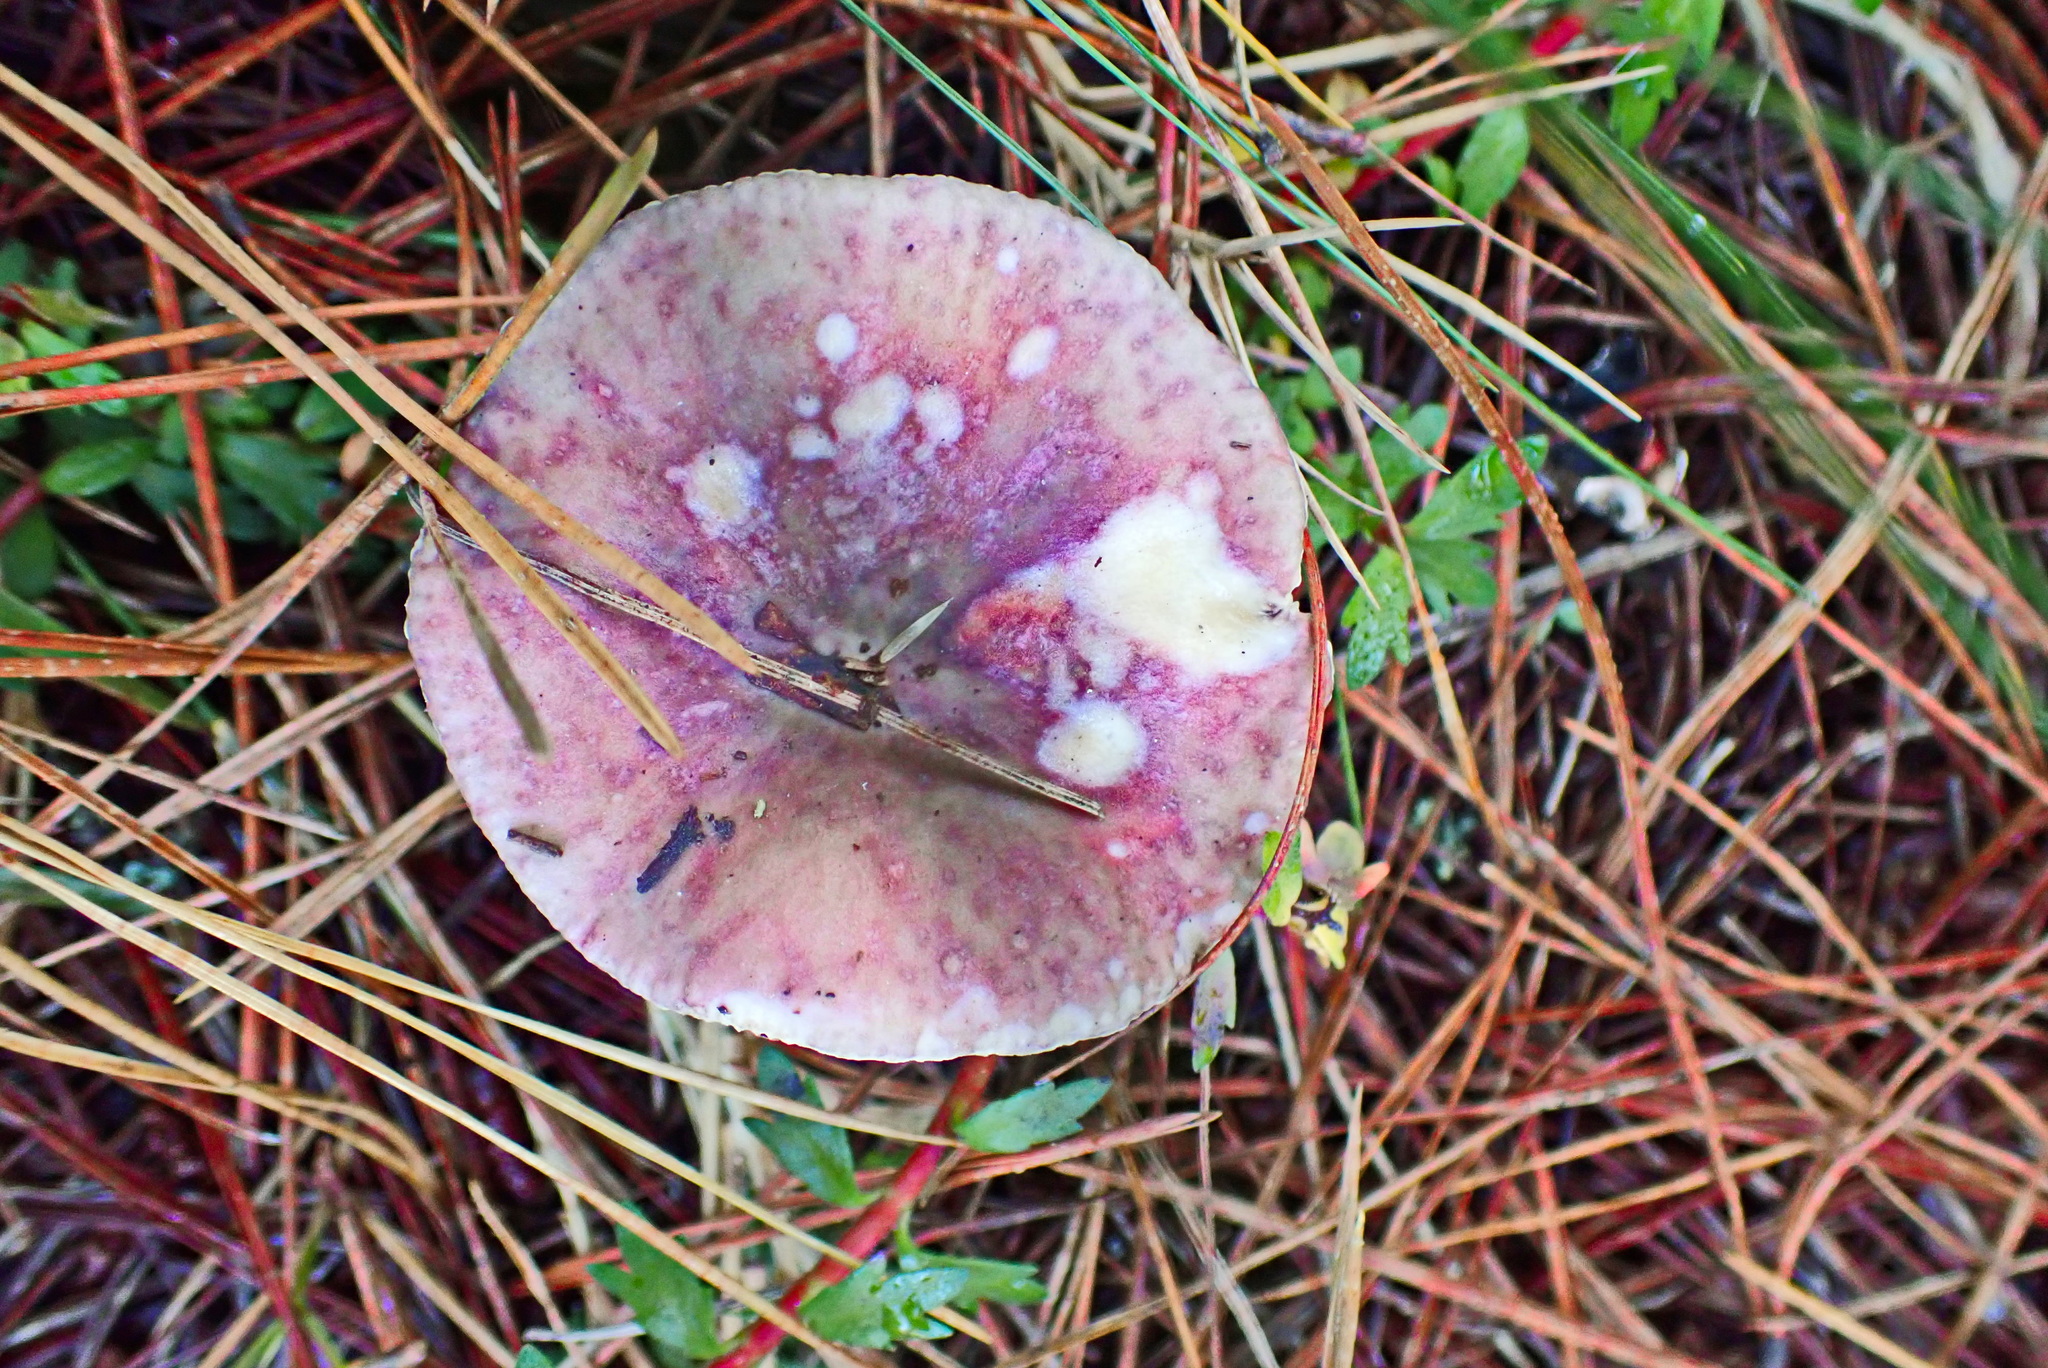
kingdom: Fungi
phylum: Basidiomycota
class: Agaricomycetes
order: Russulales
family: Russulaceae
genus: Russula
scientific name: Russula sardonia
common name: Primrose brittlegill
